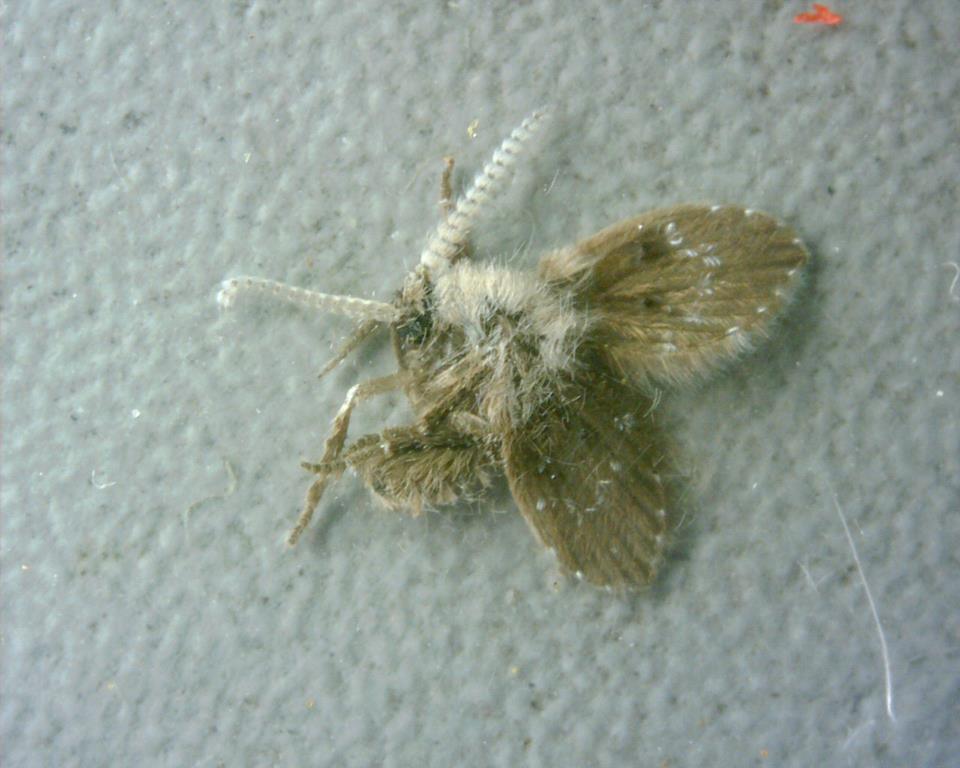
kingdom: Animalia
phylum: Arthropoda
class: Insecta
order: Diptera
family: Psychodidae
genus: Clogmia
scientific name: Clogmia albipunctatus
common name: White-spotted moth fly
